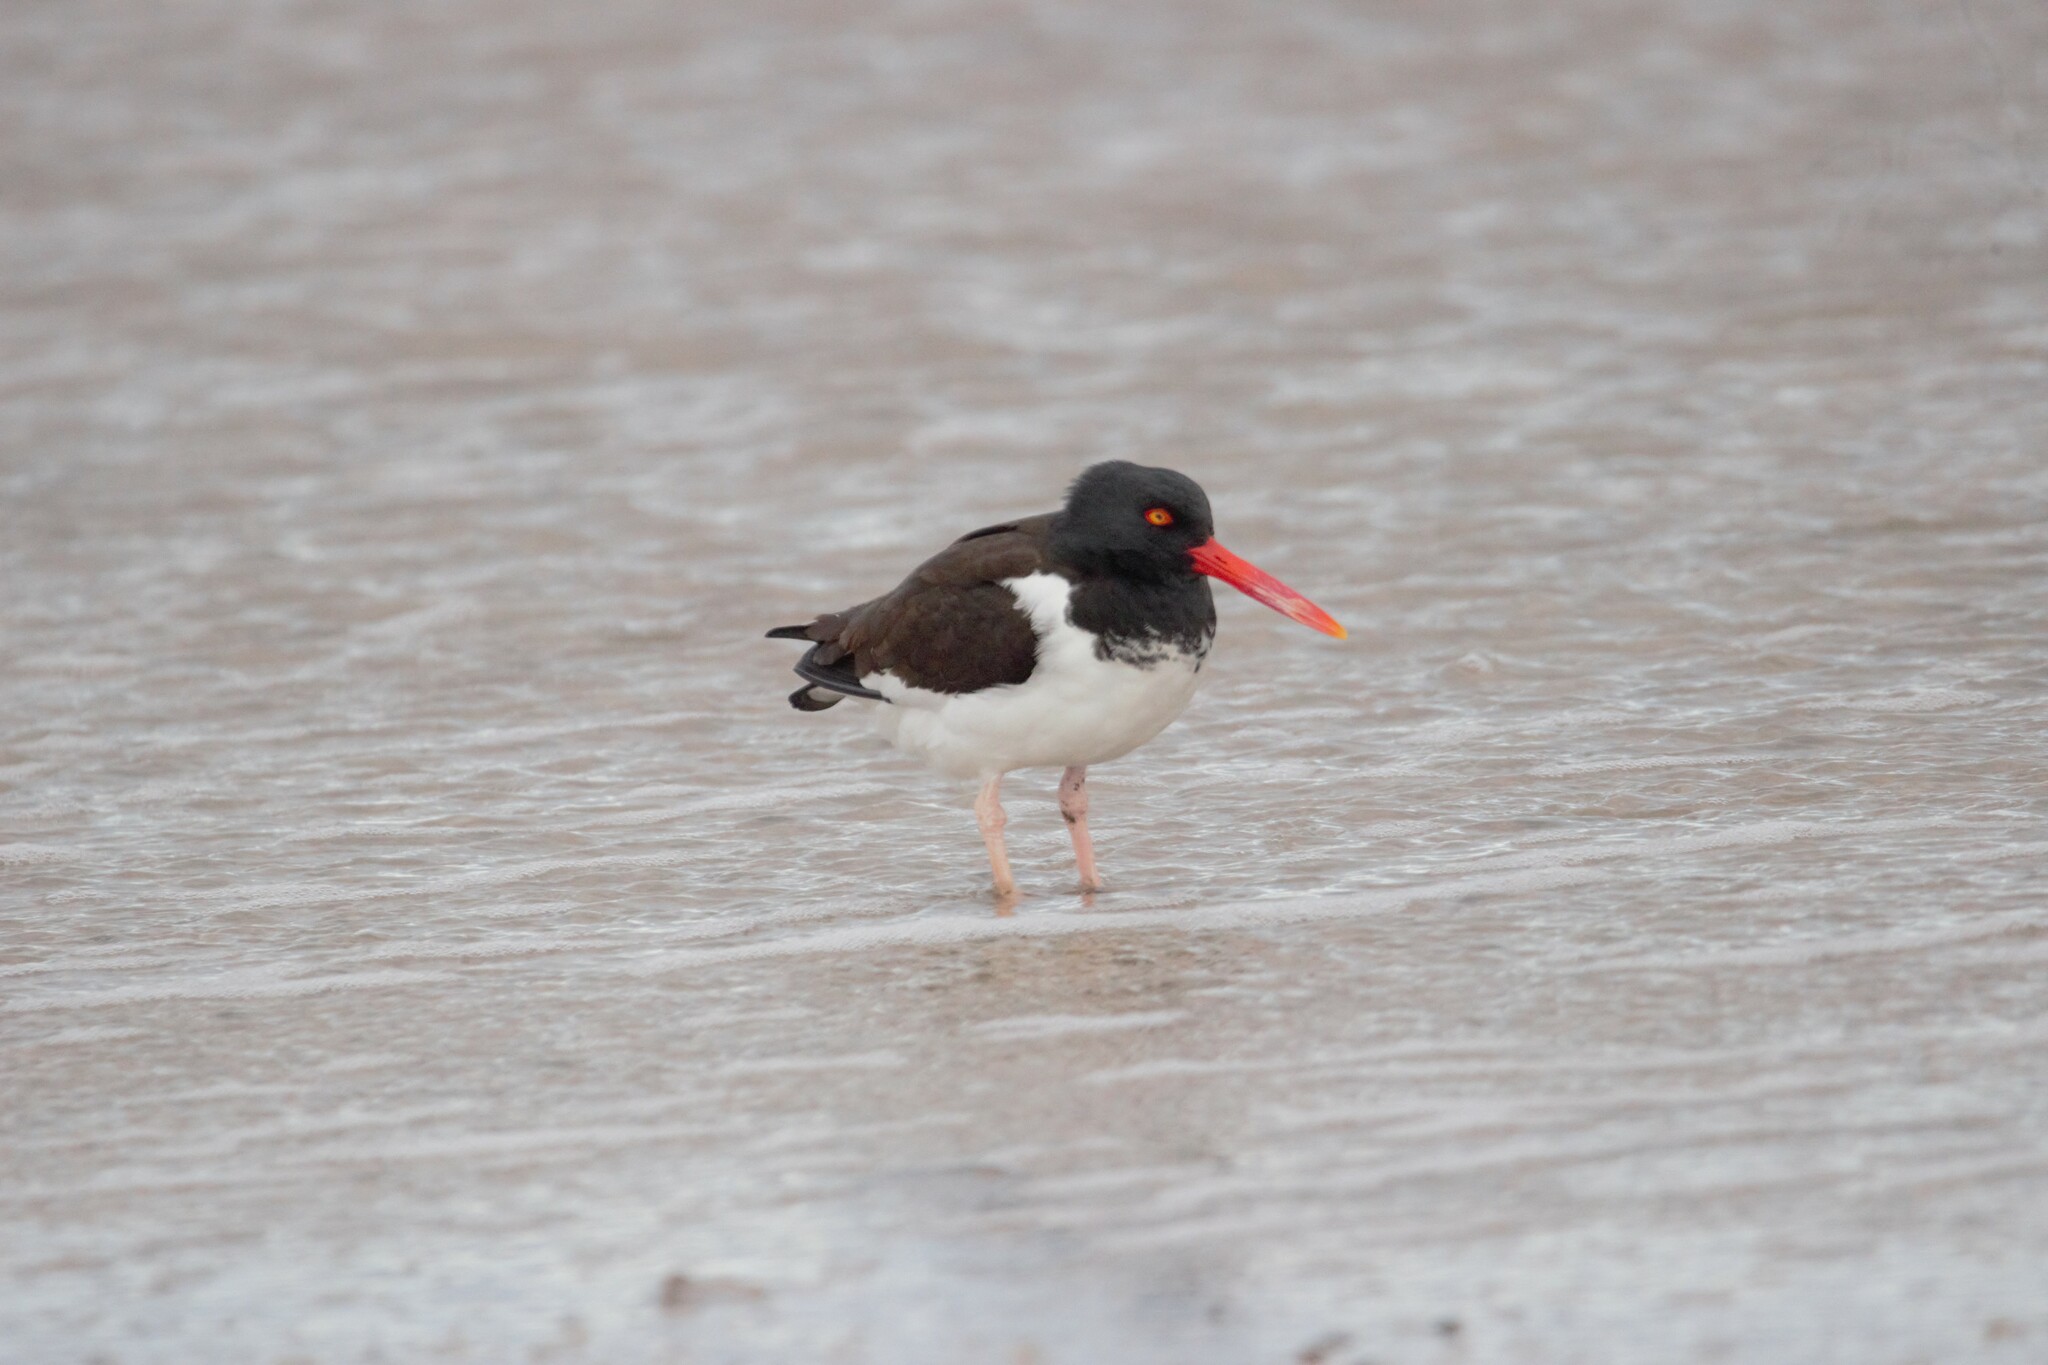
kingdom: Animalia
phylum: Chordata
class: Aves
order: Charadriiformes
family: Haematopodidae
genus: Haematopus
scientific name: Haematopus palliatus
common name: American oystercatcher
